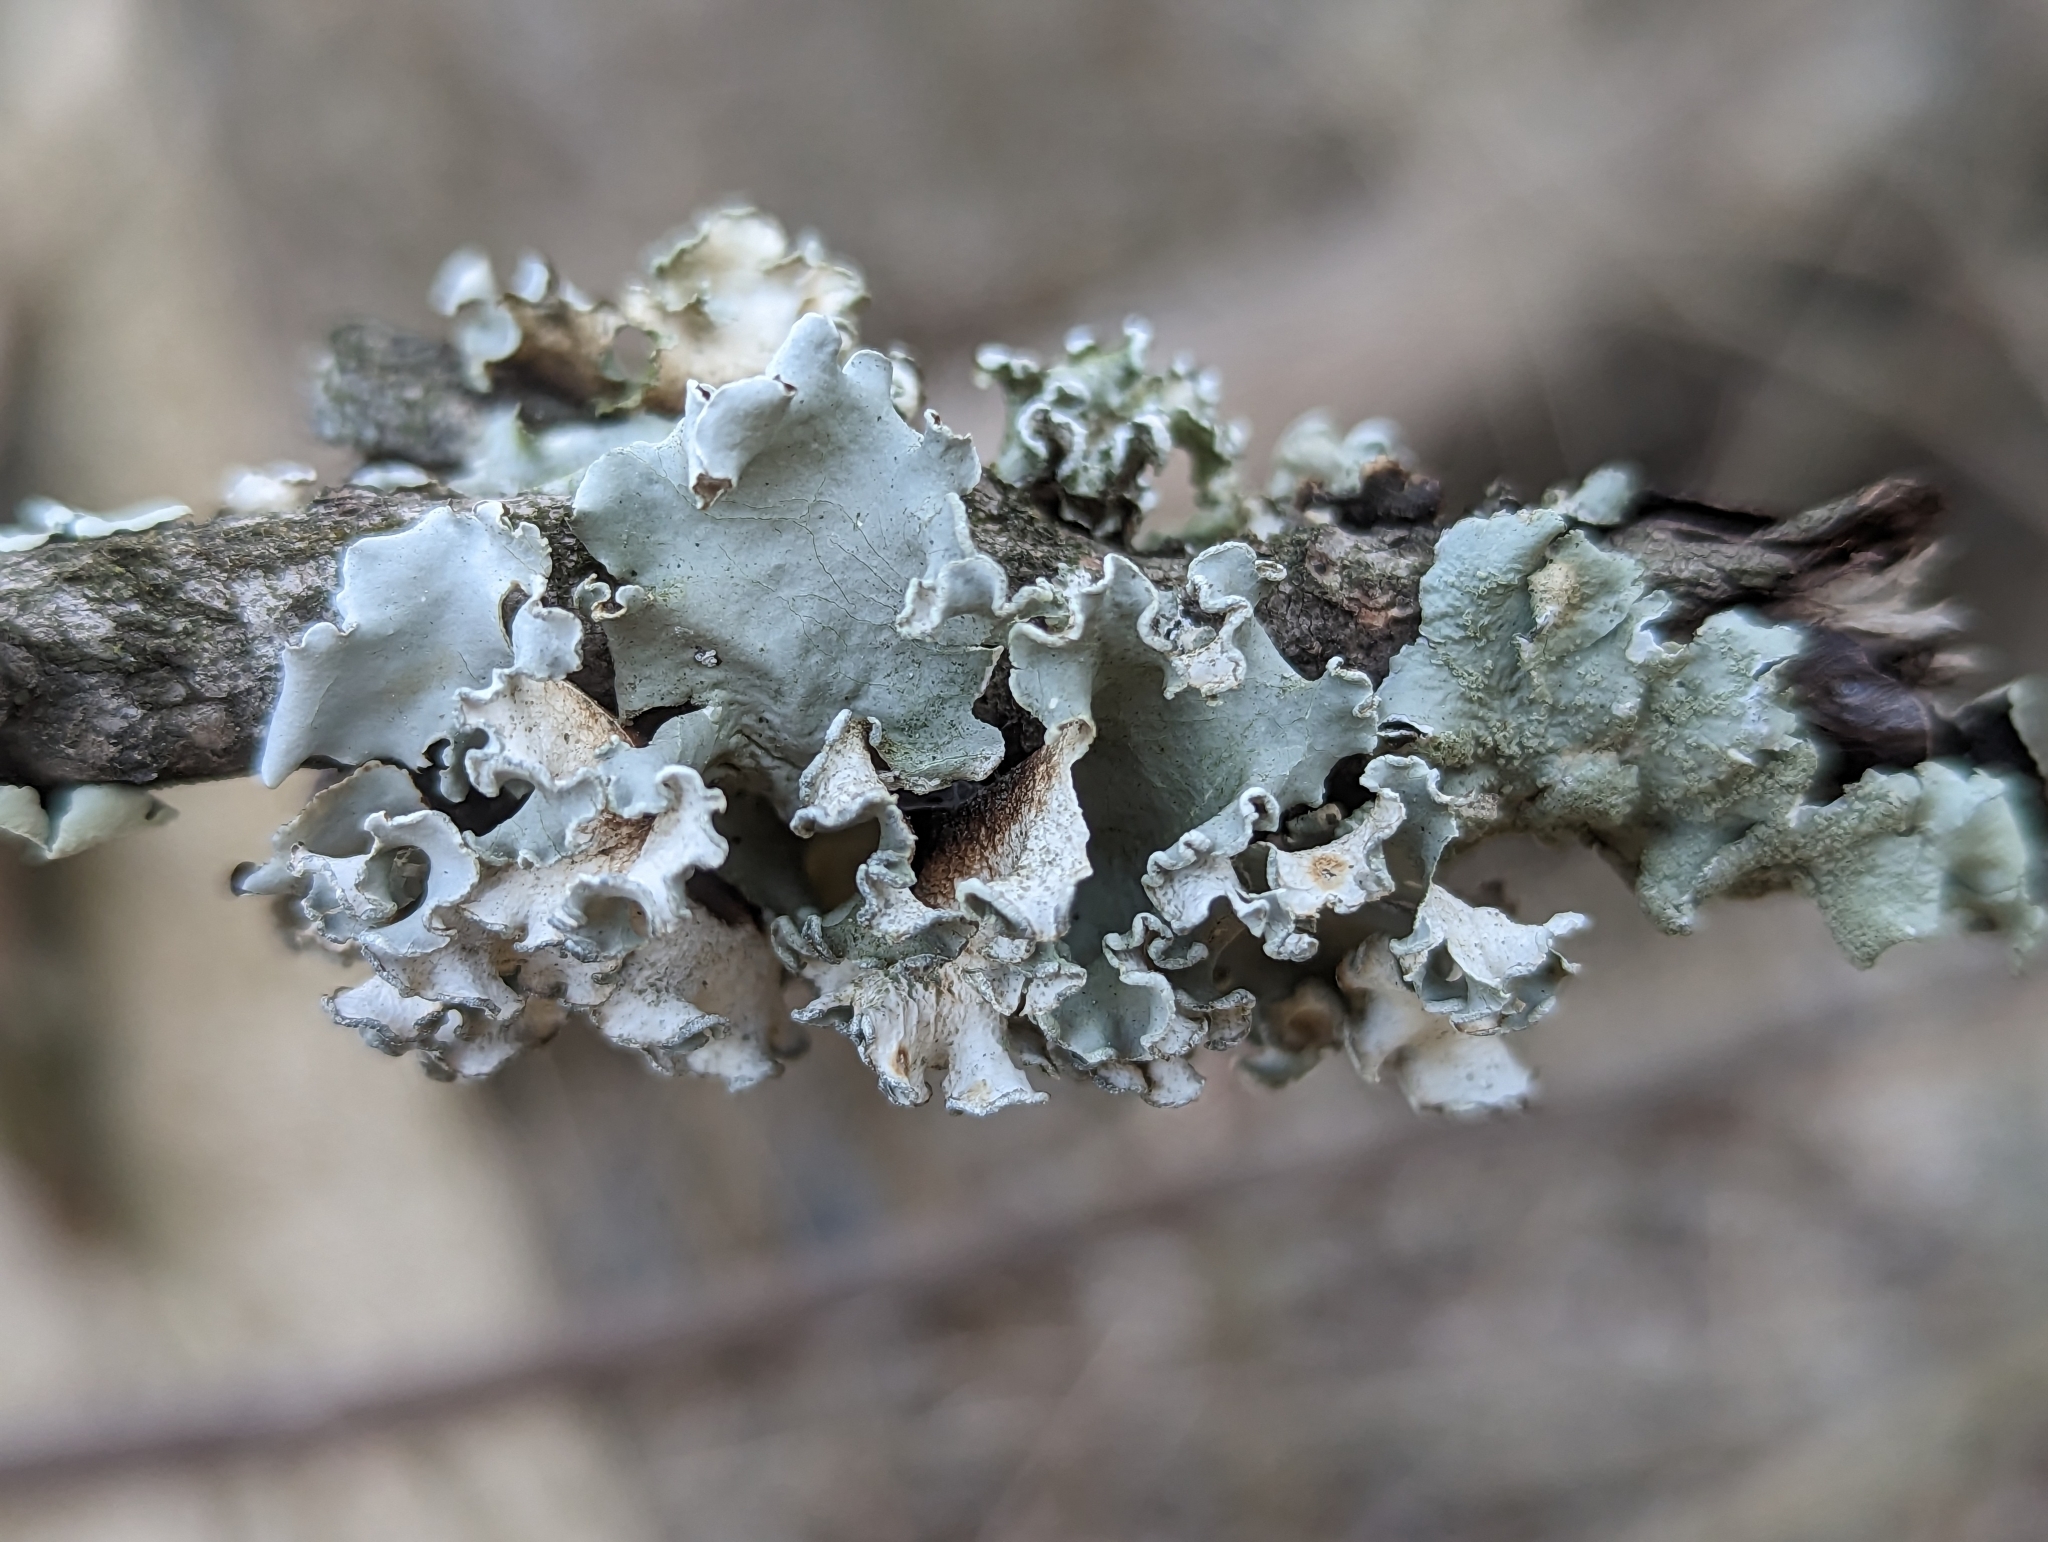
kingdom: Fungi
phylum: Ascomycota
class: Lecanoromycetes
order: Lecanorales
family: Parmeliaceae
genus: Parmotrema
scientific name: Parmotrema austrosinense
